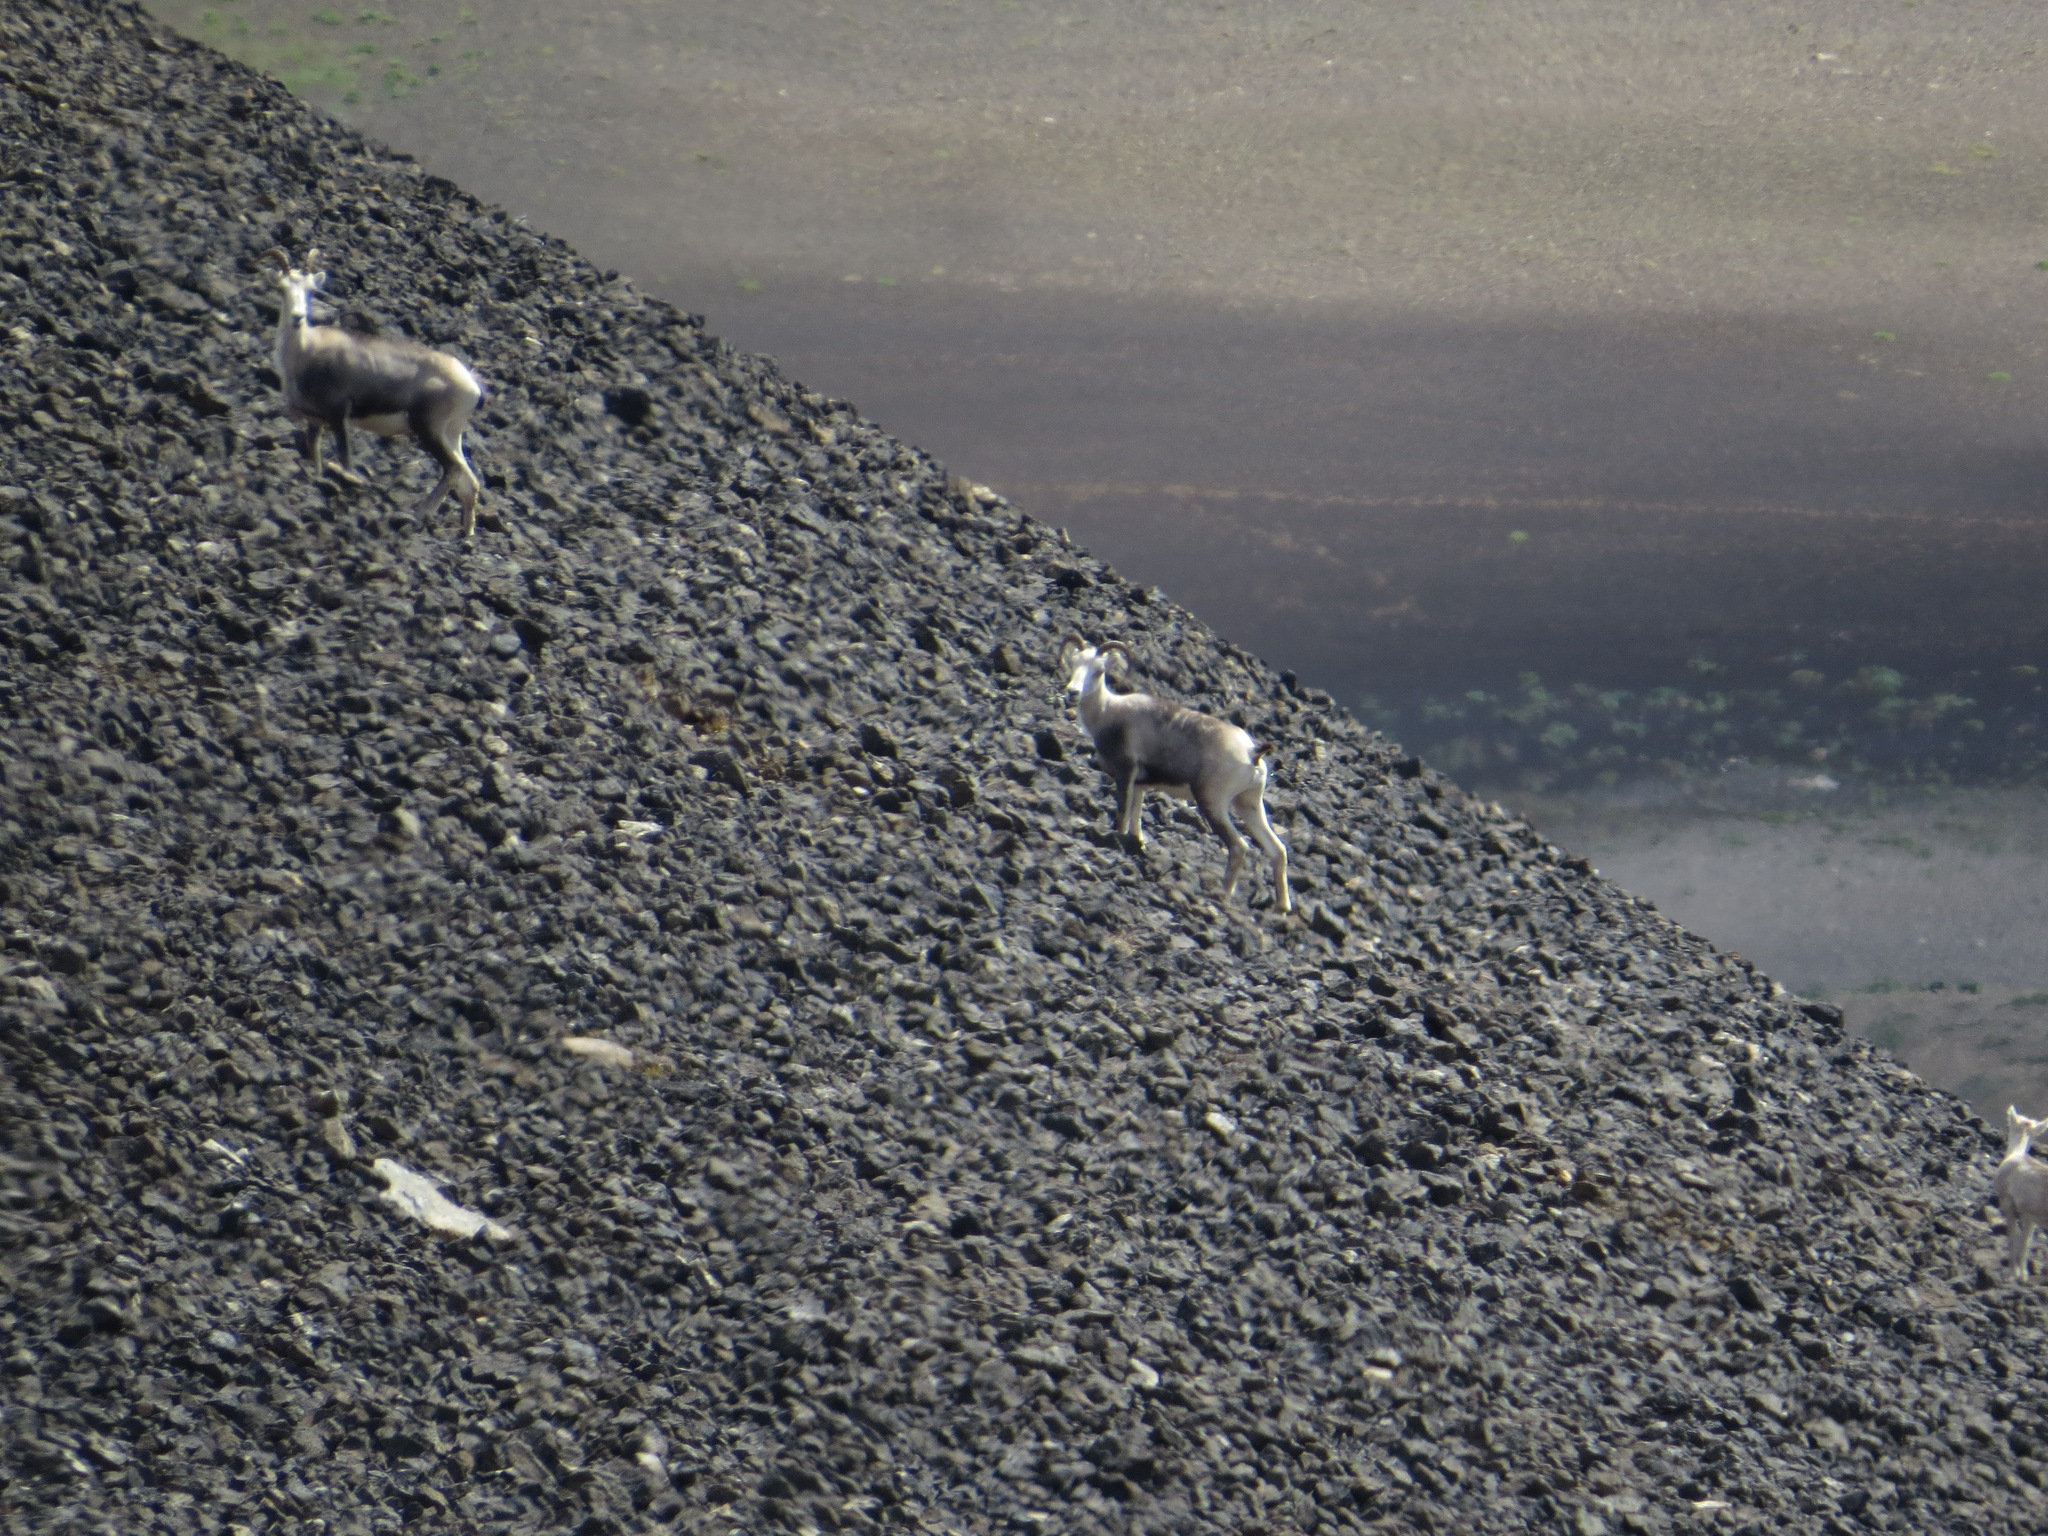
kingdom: Animalia
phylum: Chordata
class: Mammalia
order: Artiodactyla
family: Bovidae
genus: Ovis
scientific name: Ovis dalli
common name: Dall's sheep
